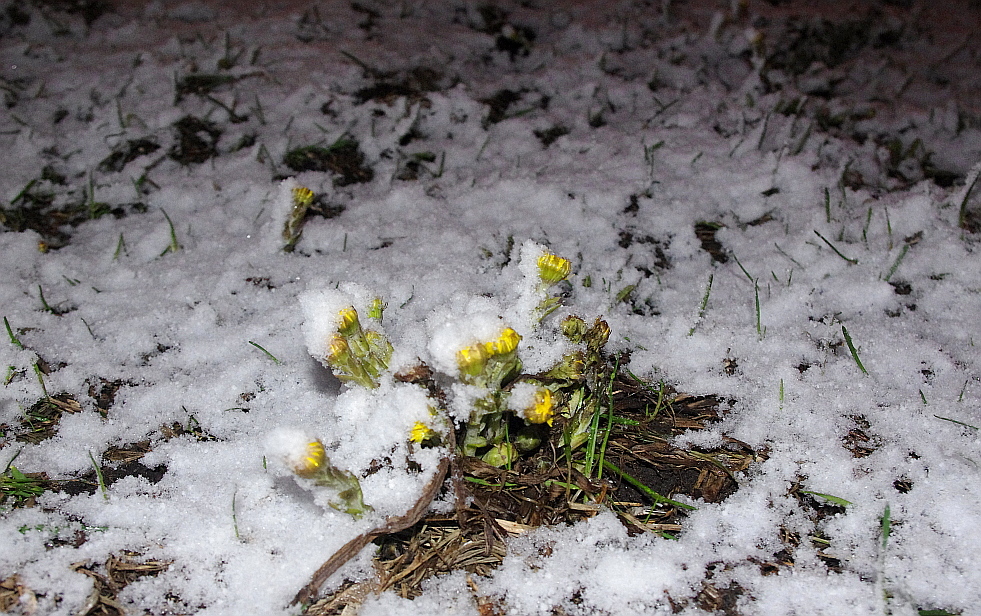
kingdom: Plantae
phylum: Tracheophyta
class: Magnoliopsida
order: Asterales
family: Asteraceae
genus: Tussilago
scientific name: Tussilago farfara
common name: Coltsfoot
